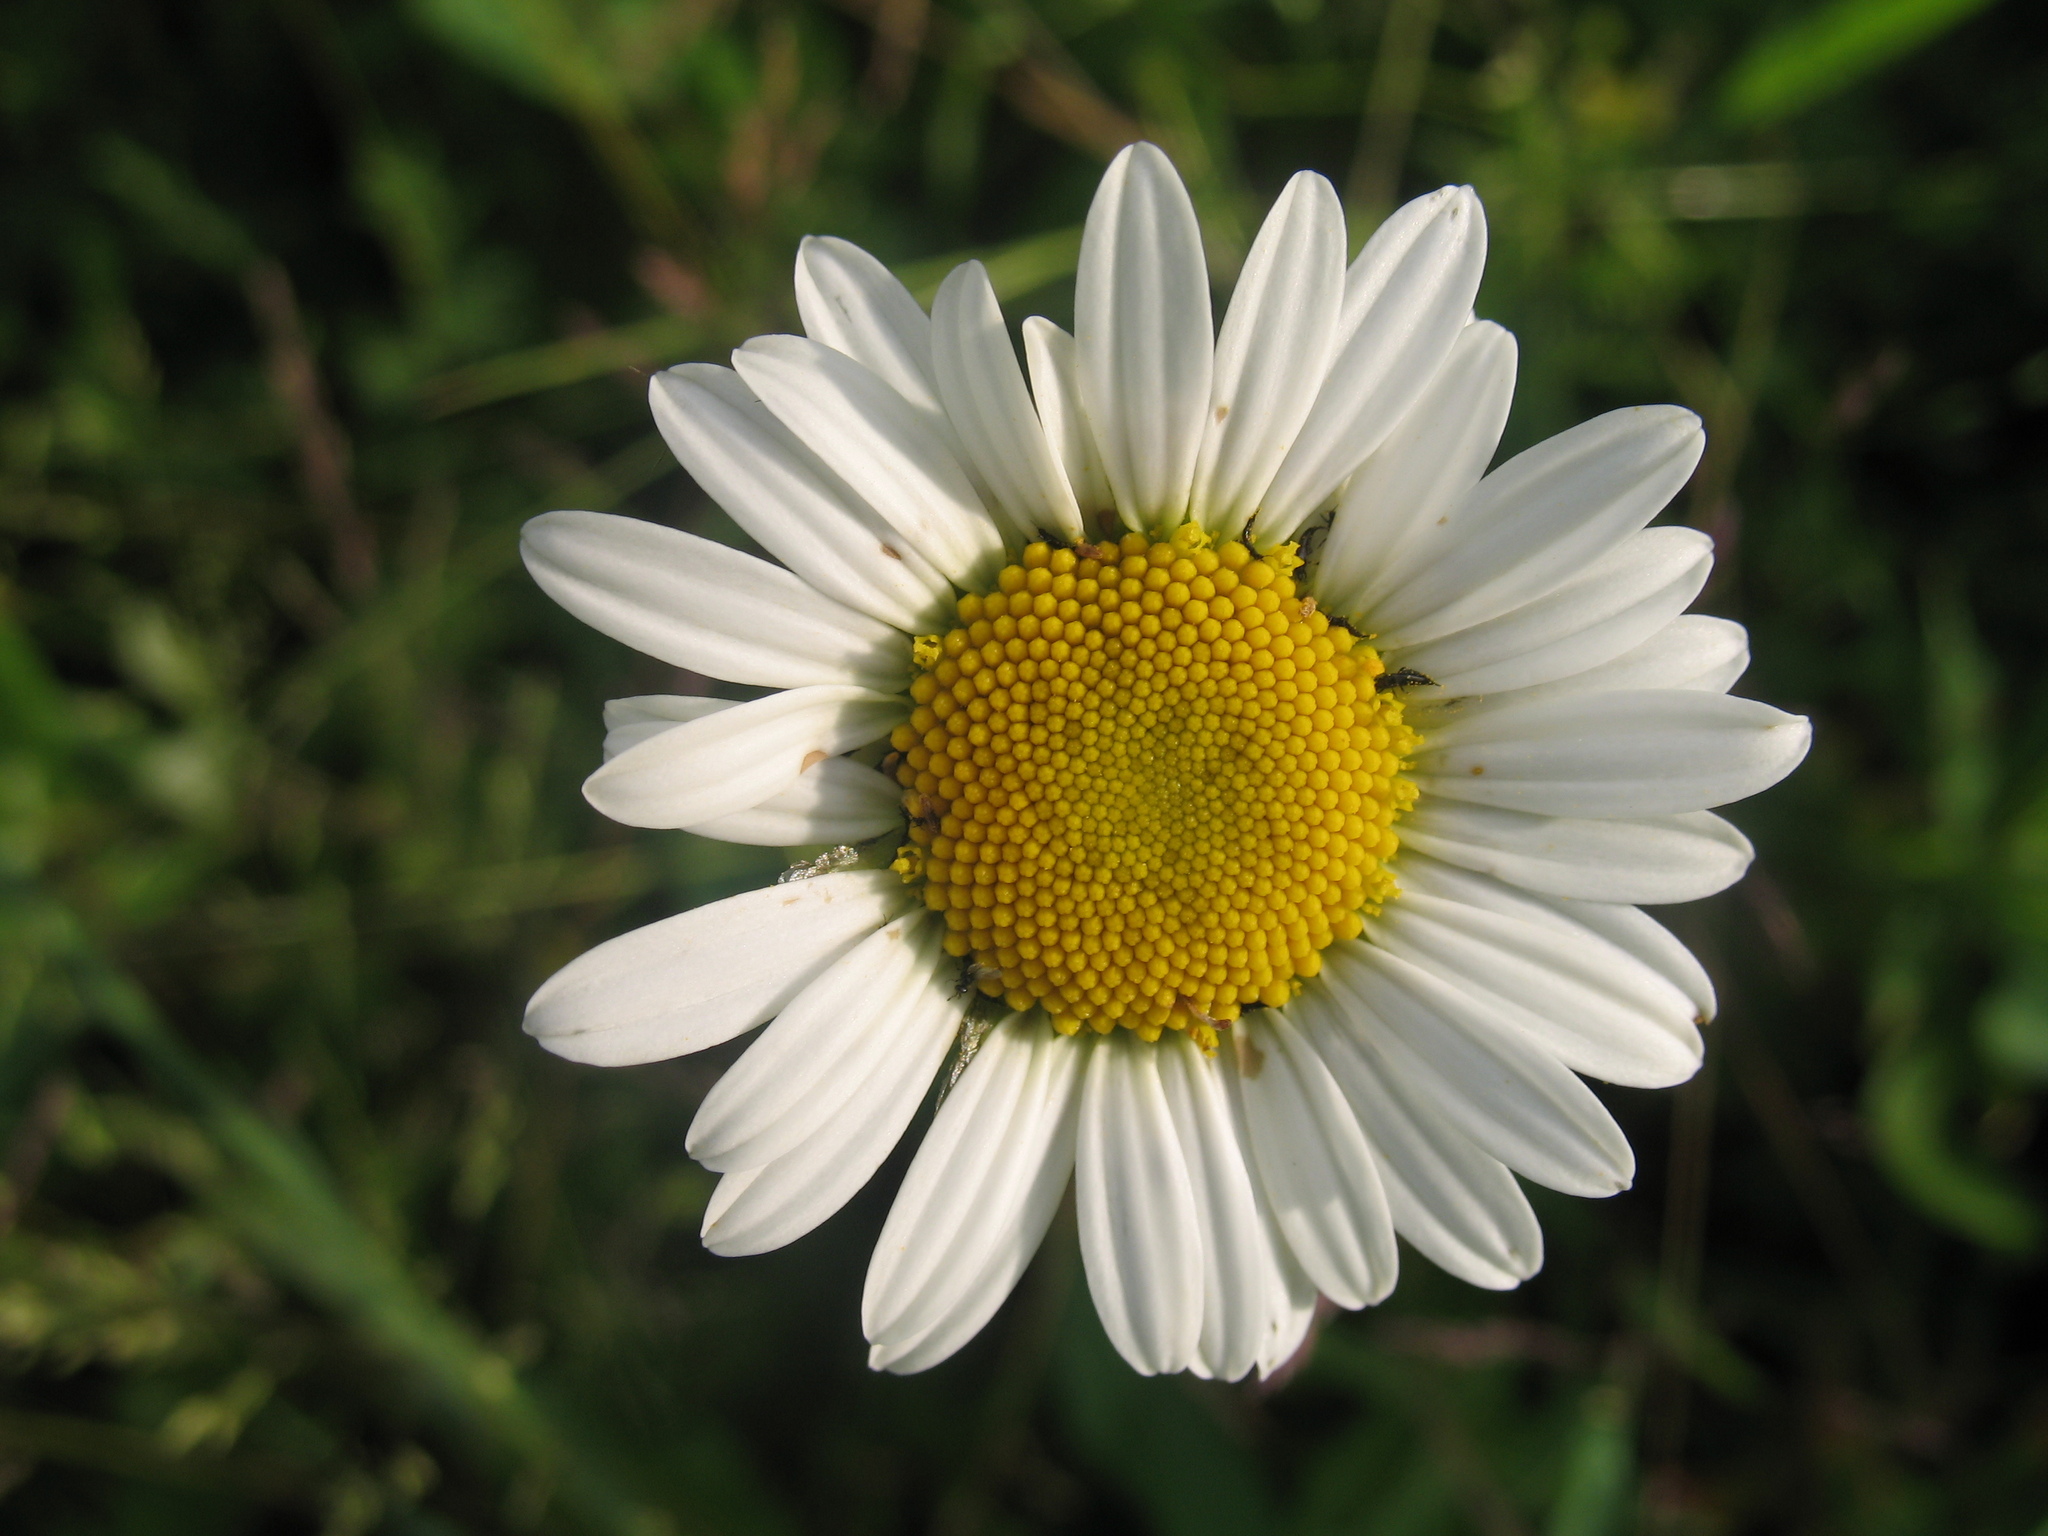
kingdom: Plantae
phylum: Tracheophyta
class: Magnoliopsida
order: Asterales
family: Asteraceae
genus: Leucanthemum
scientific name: Leucanthemum vulgare
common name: Oxeye daisy
